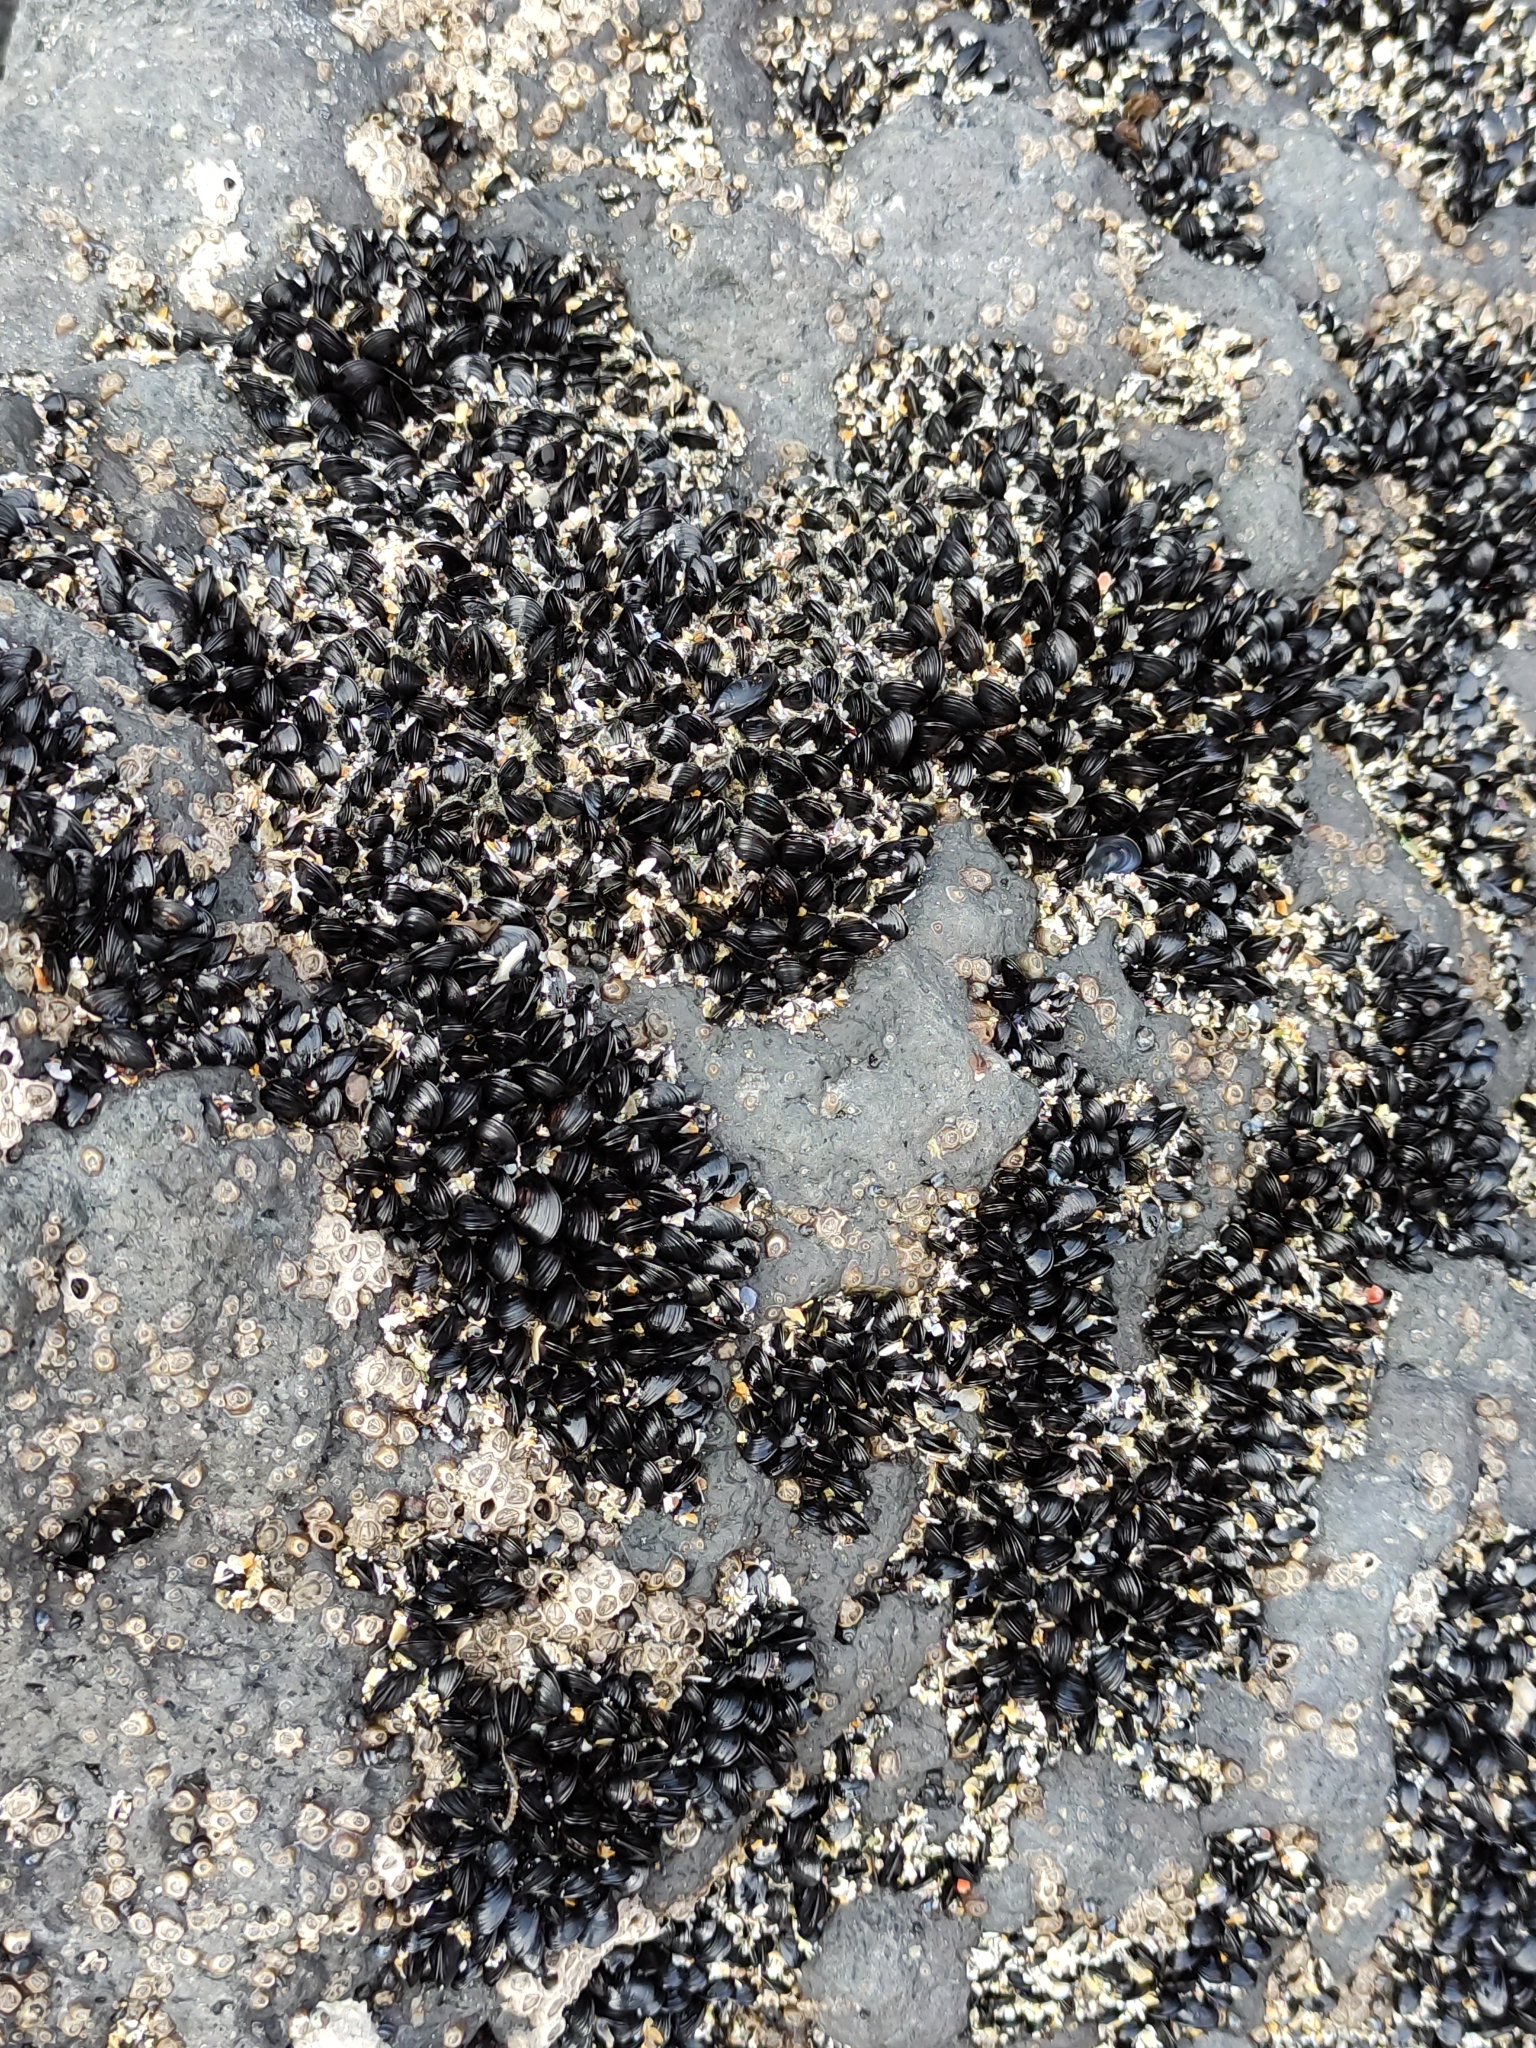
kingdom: Animalia
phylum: Mollusca
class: Bivalvia
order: Mytilida
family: Mytilidae
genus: Xenostrobus
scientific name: Xenostrobus neozelanicus
